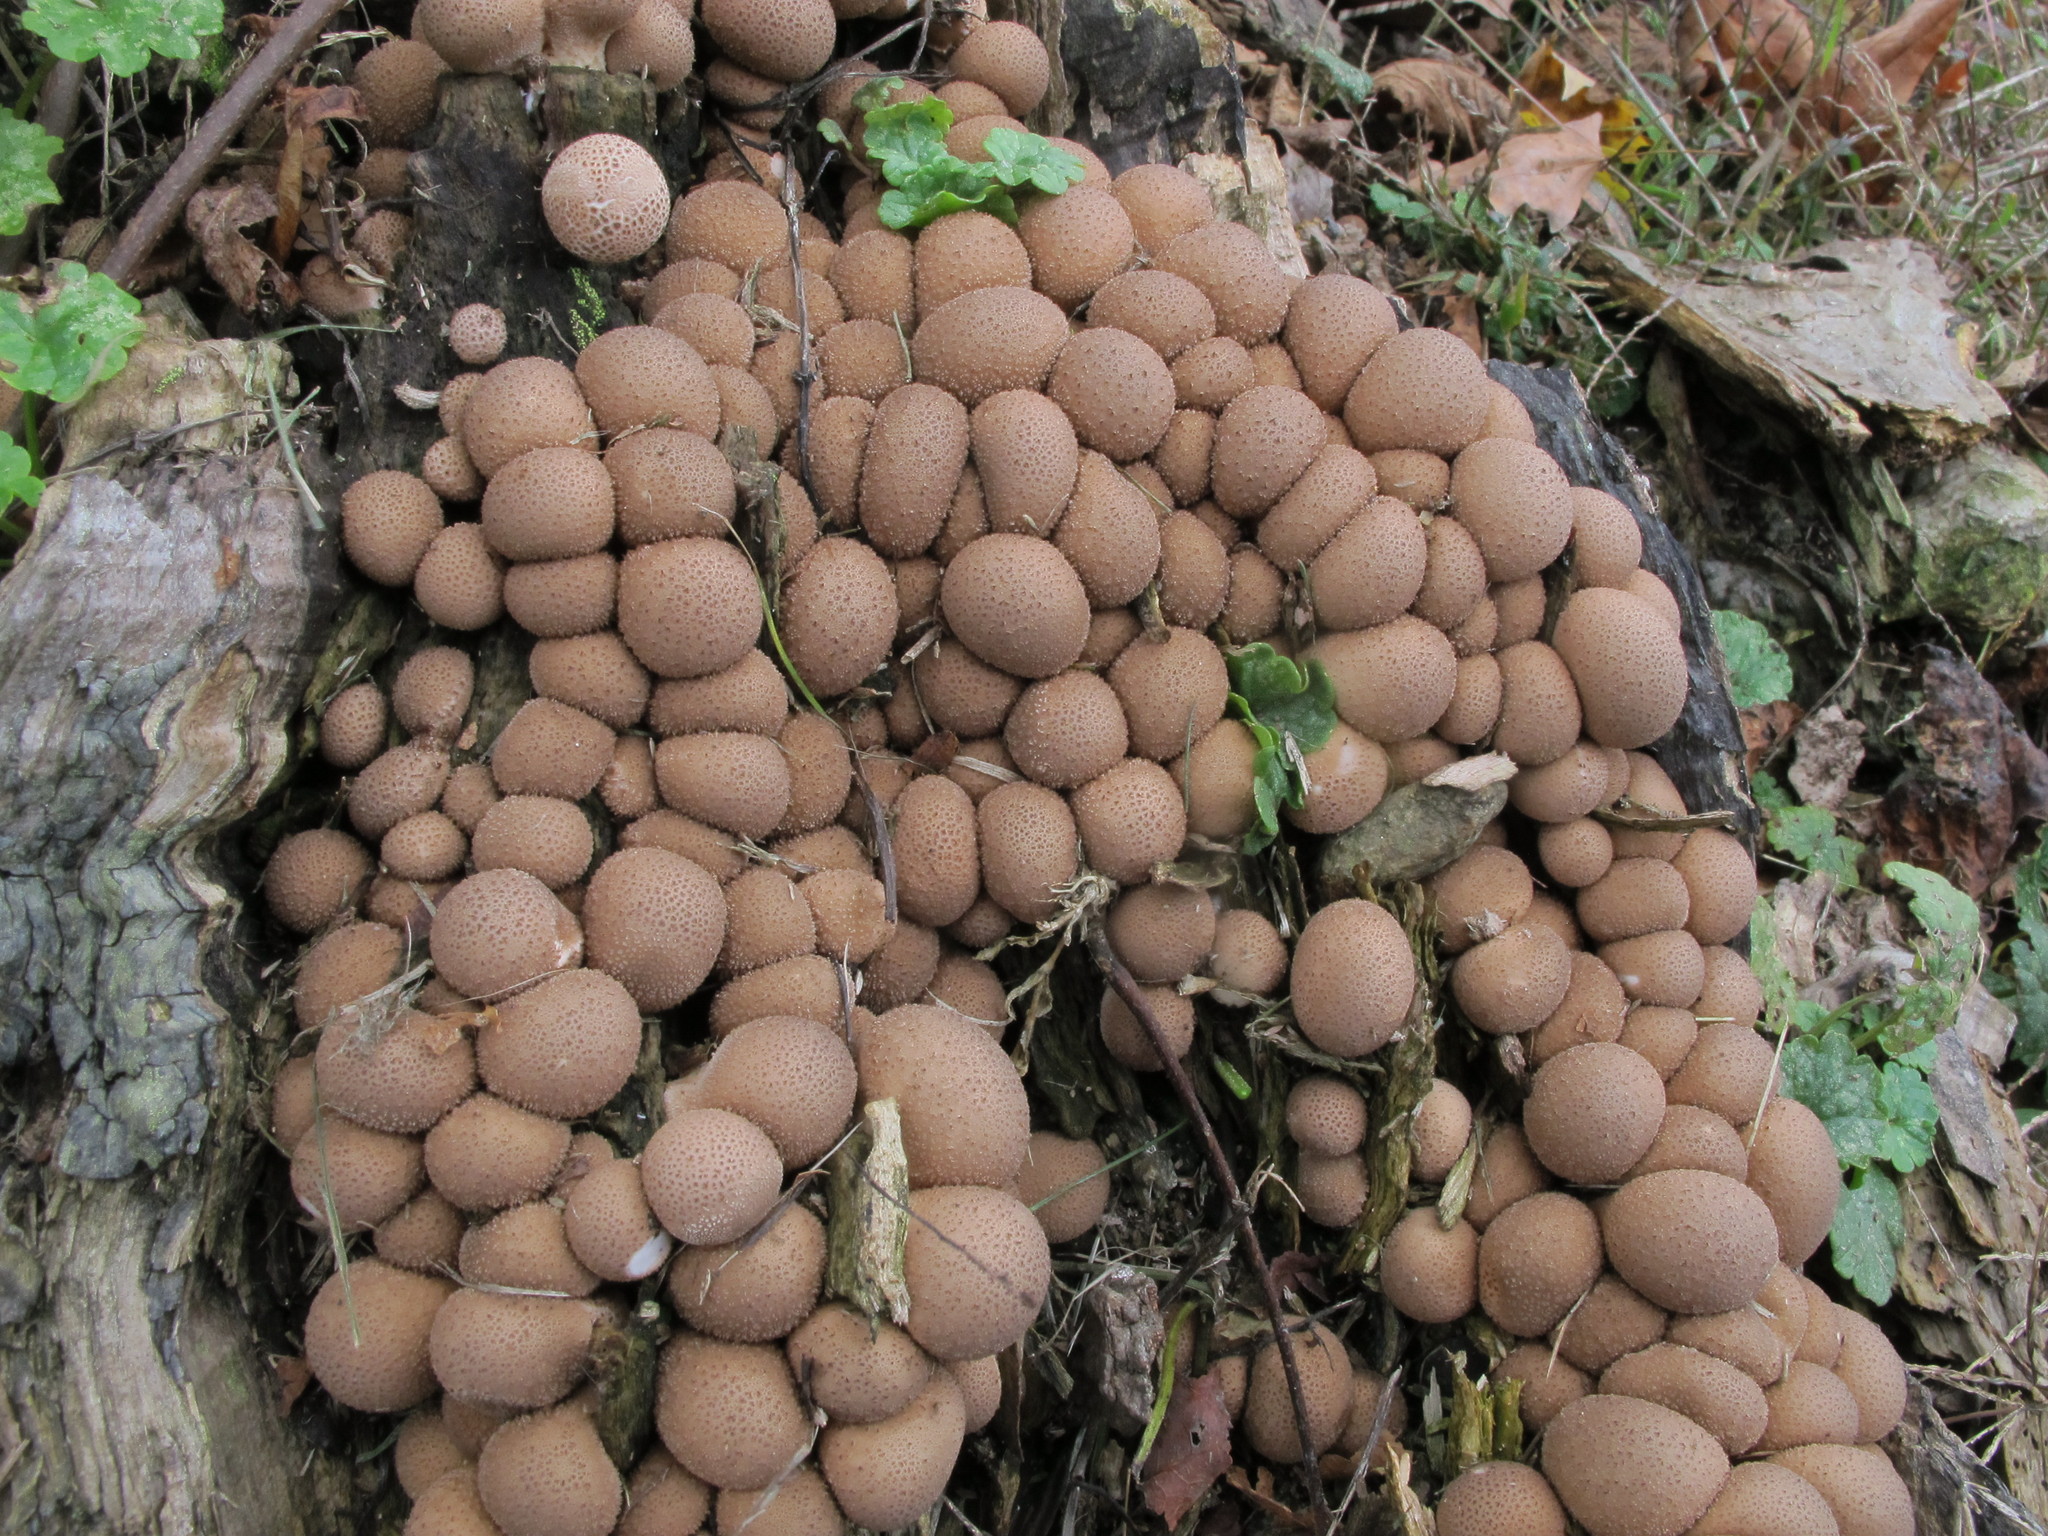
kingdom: Fungi
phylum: Basidiomycota
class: Agaricomycetes
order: Agaricales
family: Lycoperdaceae
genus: Apioperdon
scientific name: Apioperdon pyriforme
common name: Pear-shaped puffball
